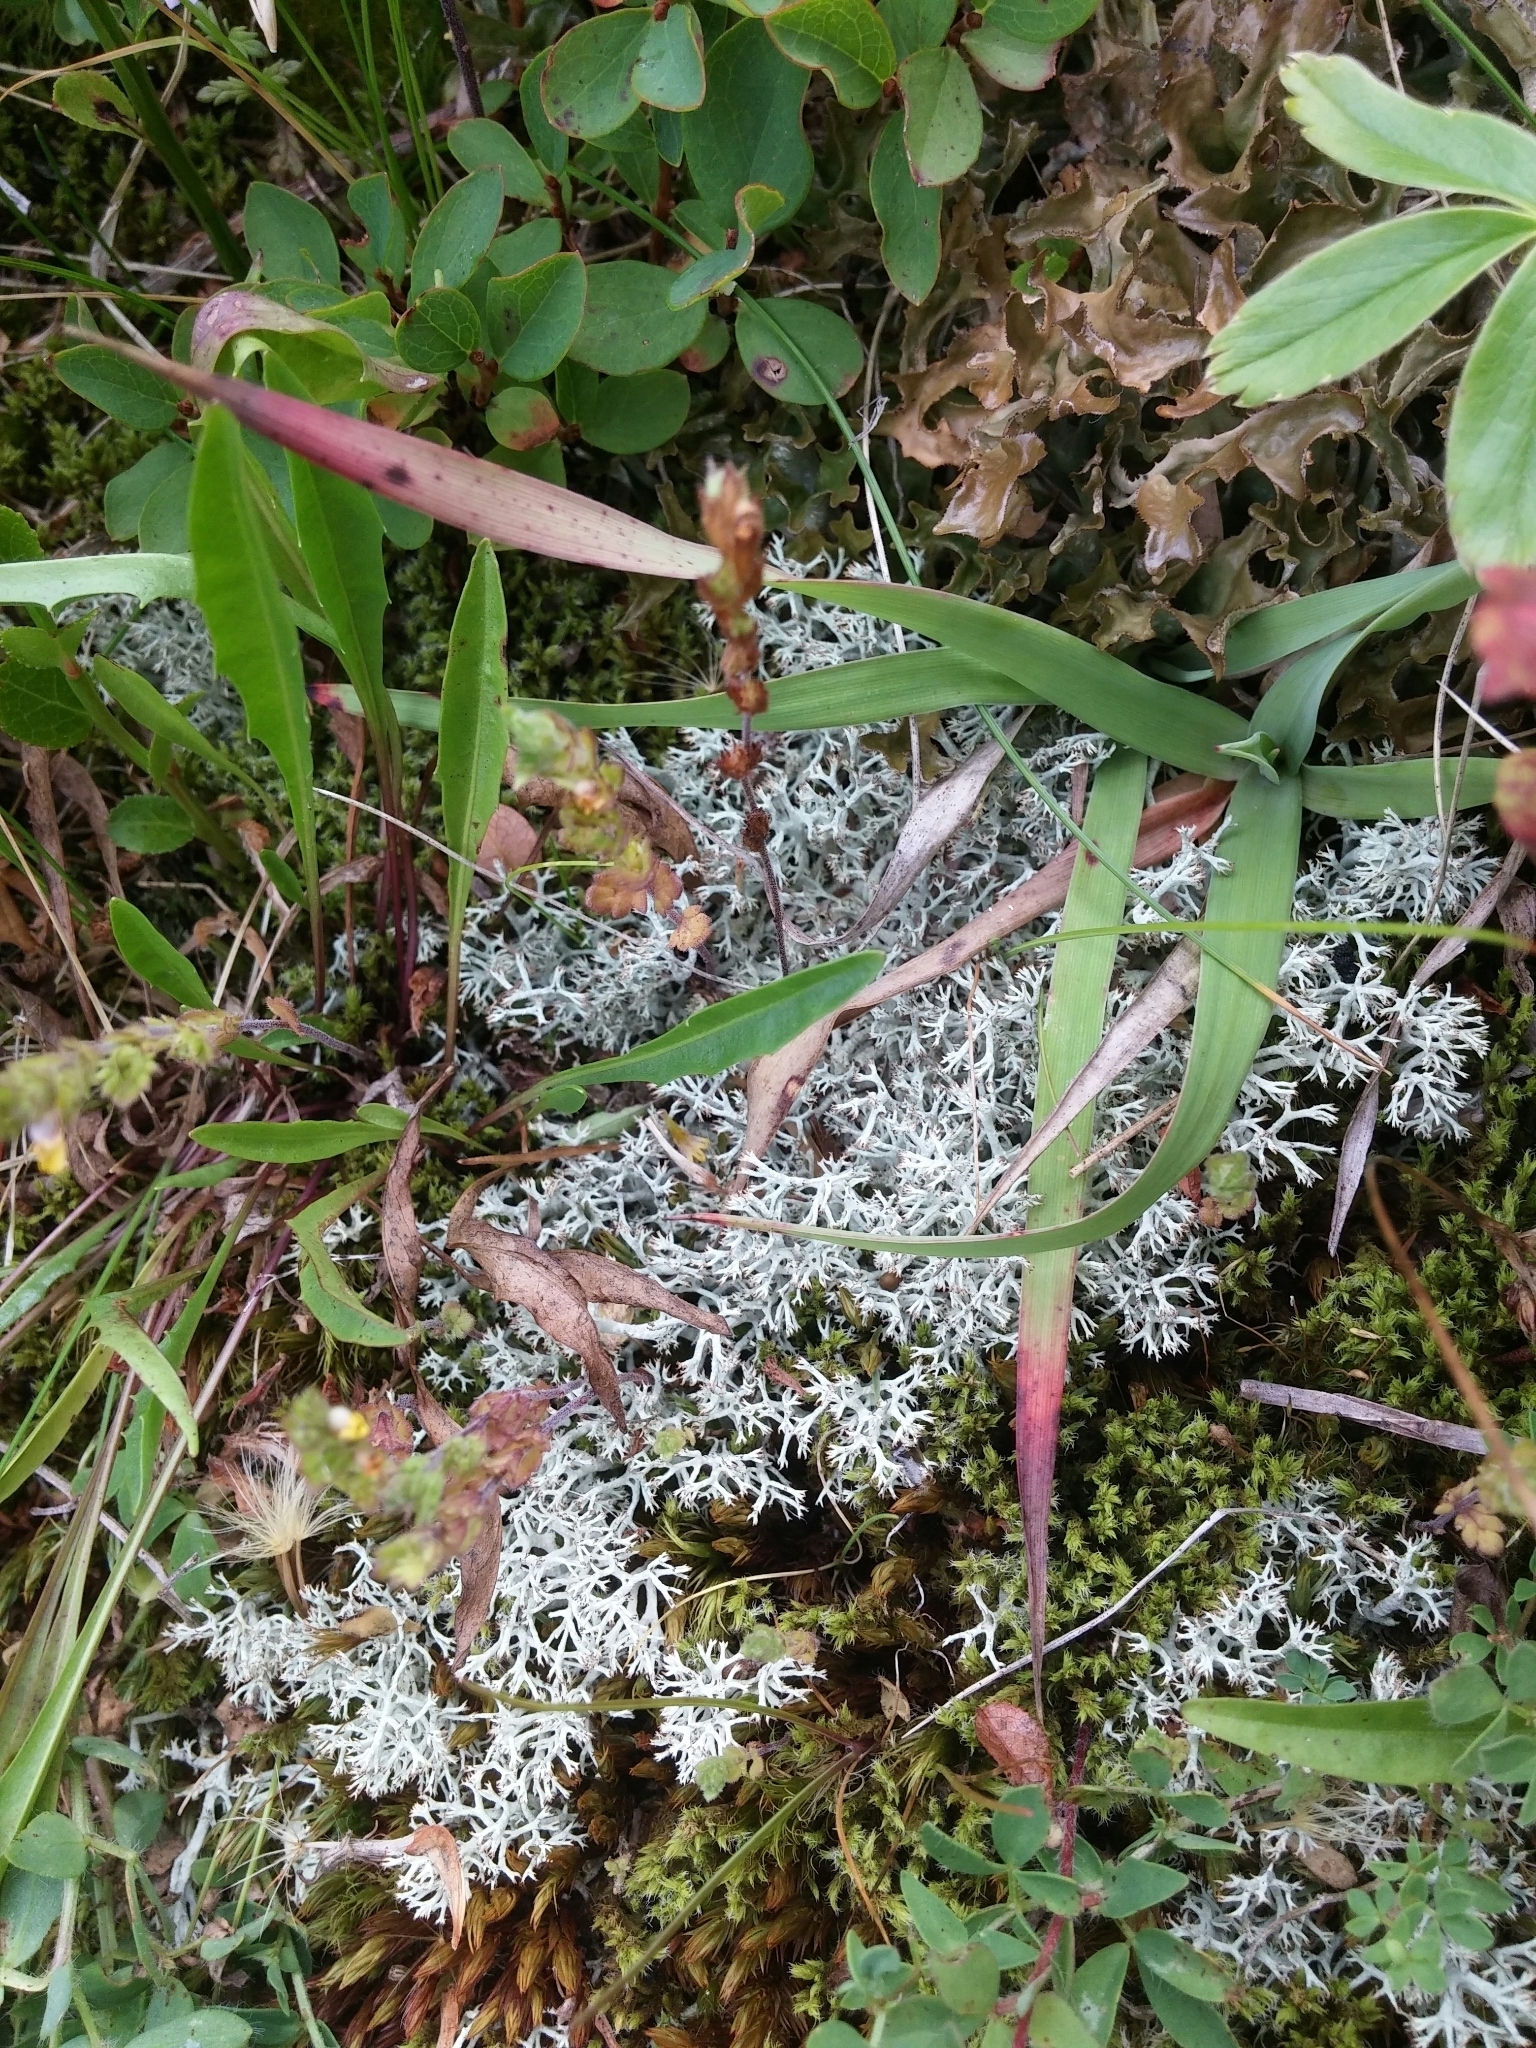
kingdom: Fungi
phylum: Ascomycota
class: Lecanoromycetes
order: Lecanorales
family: Cladoniaceae
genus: Cladonia
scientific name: Cladonia rangiferina
